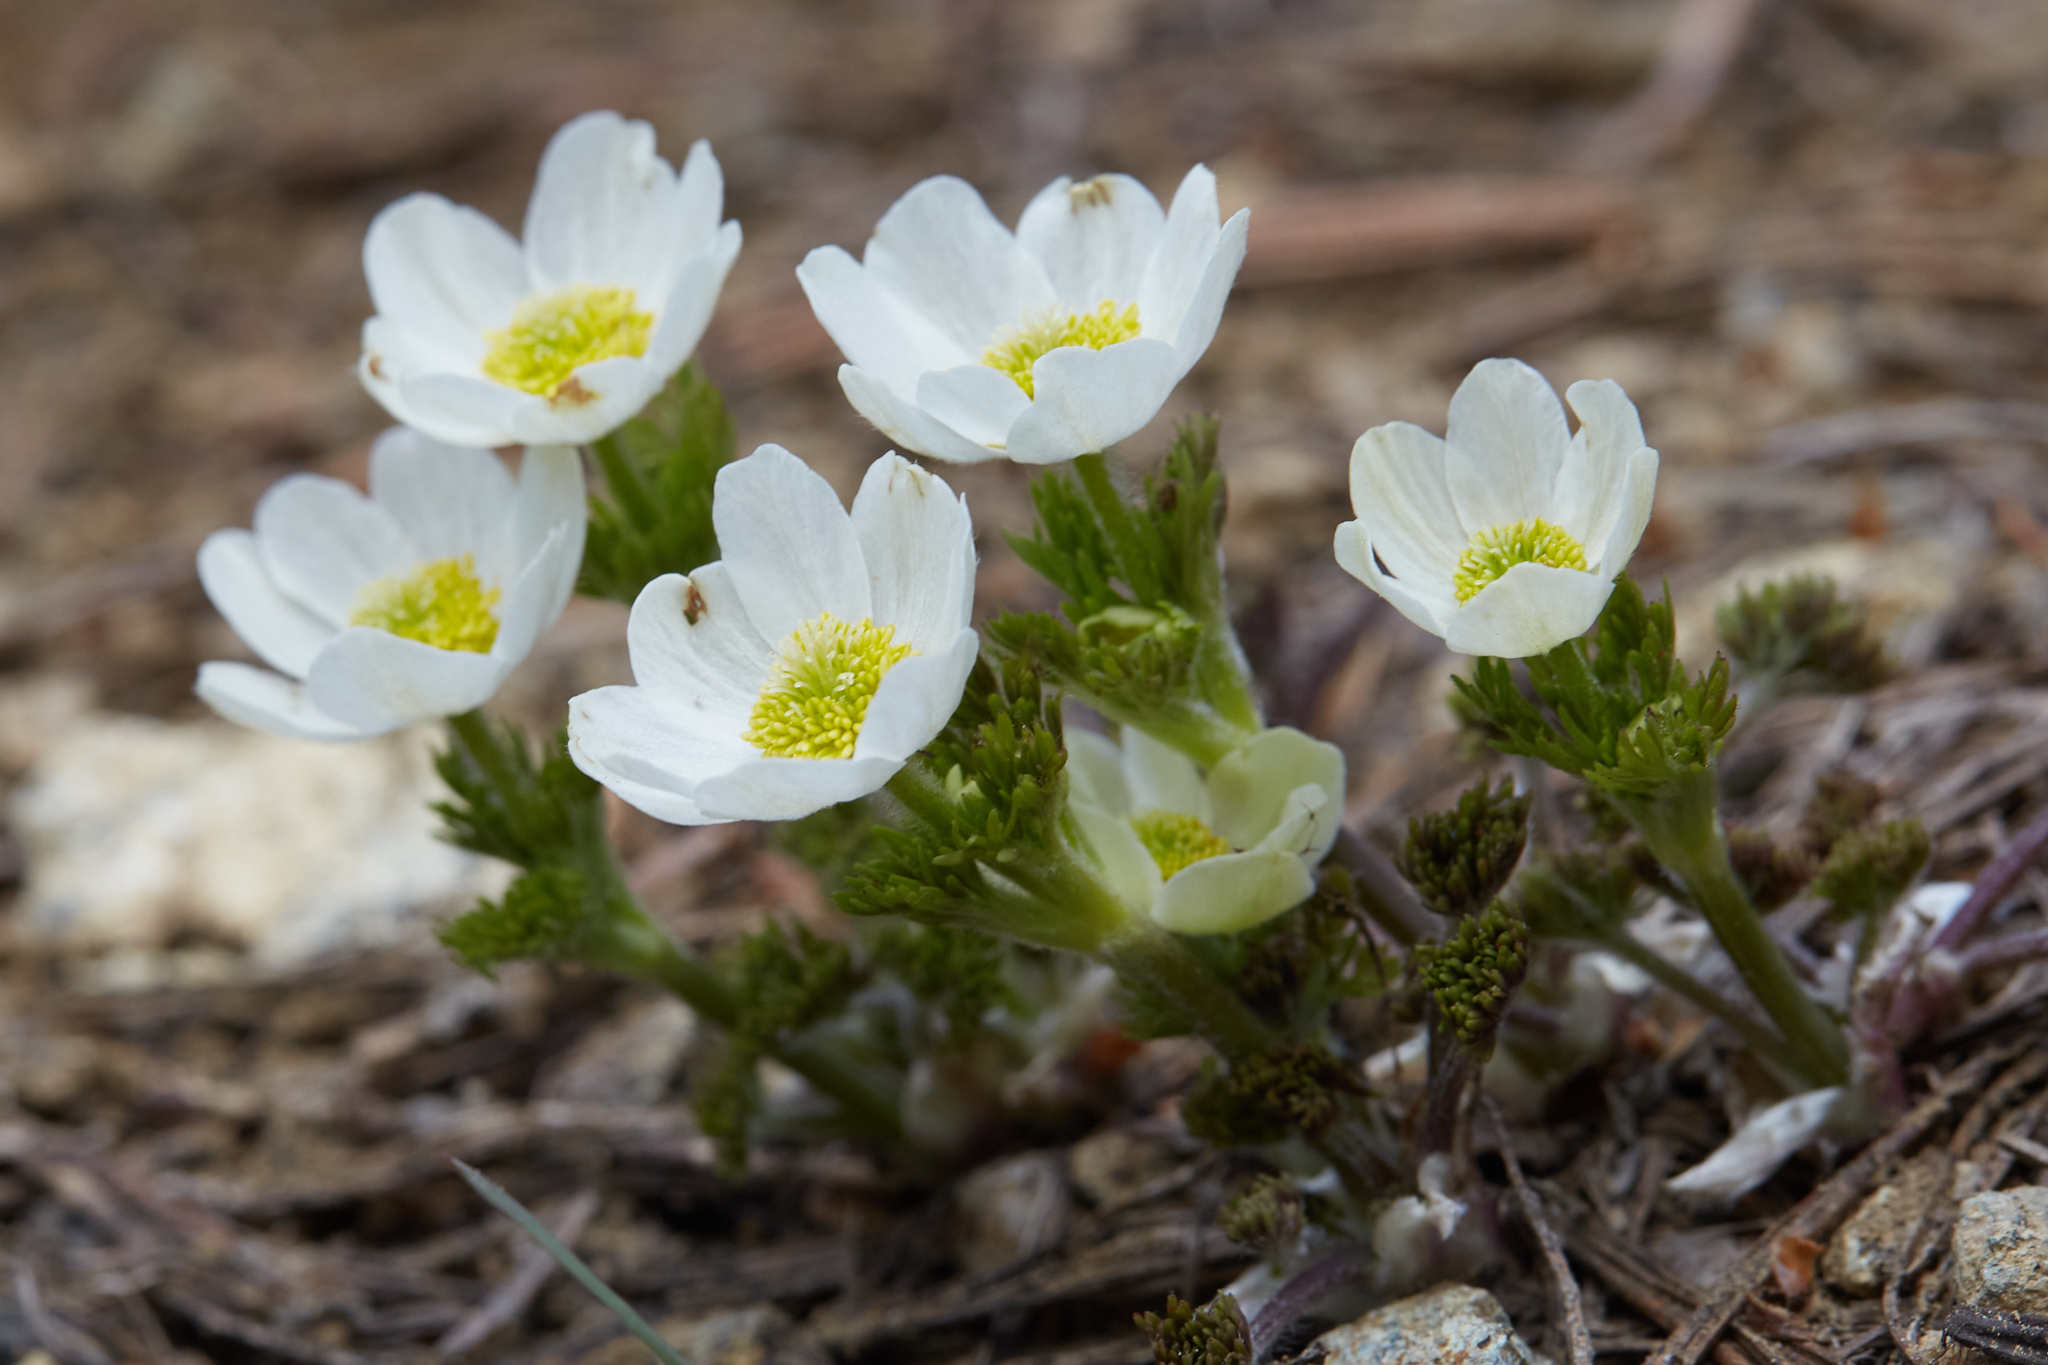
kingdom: Plantae
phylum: Tracheophyta
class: Magnoliopsida
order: Ranunculales
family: Ranunculaceae
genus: Anemone
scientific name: Anemone drummondii
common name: Drummond's anemone
